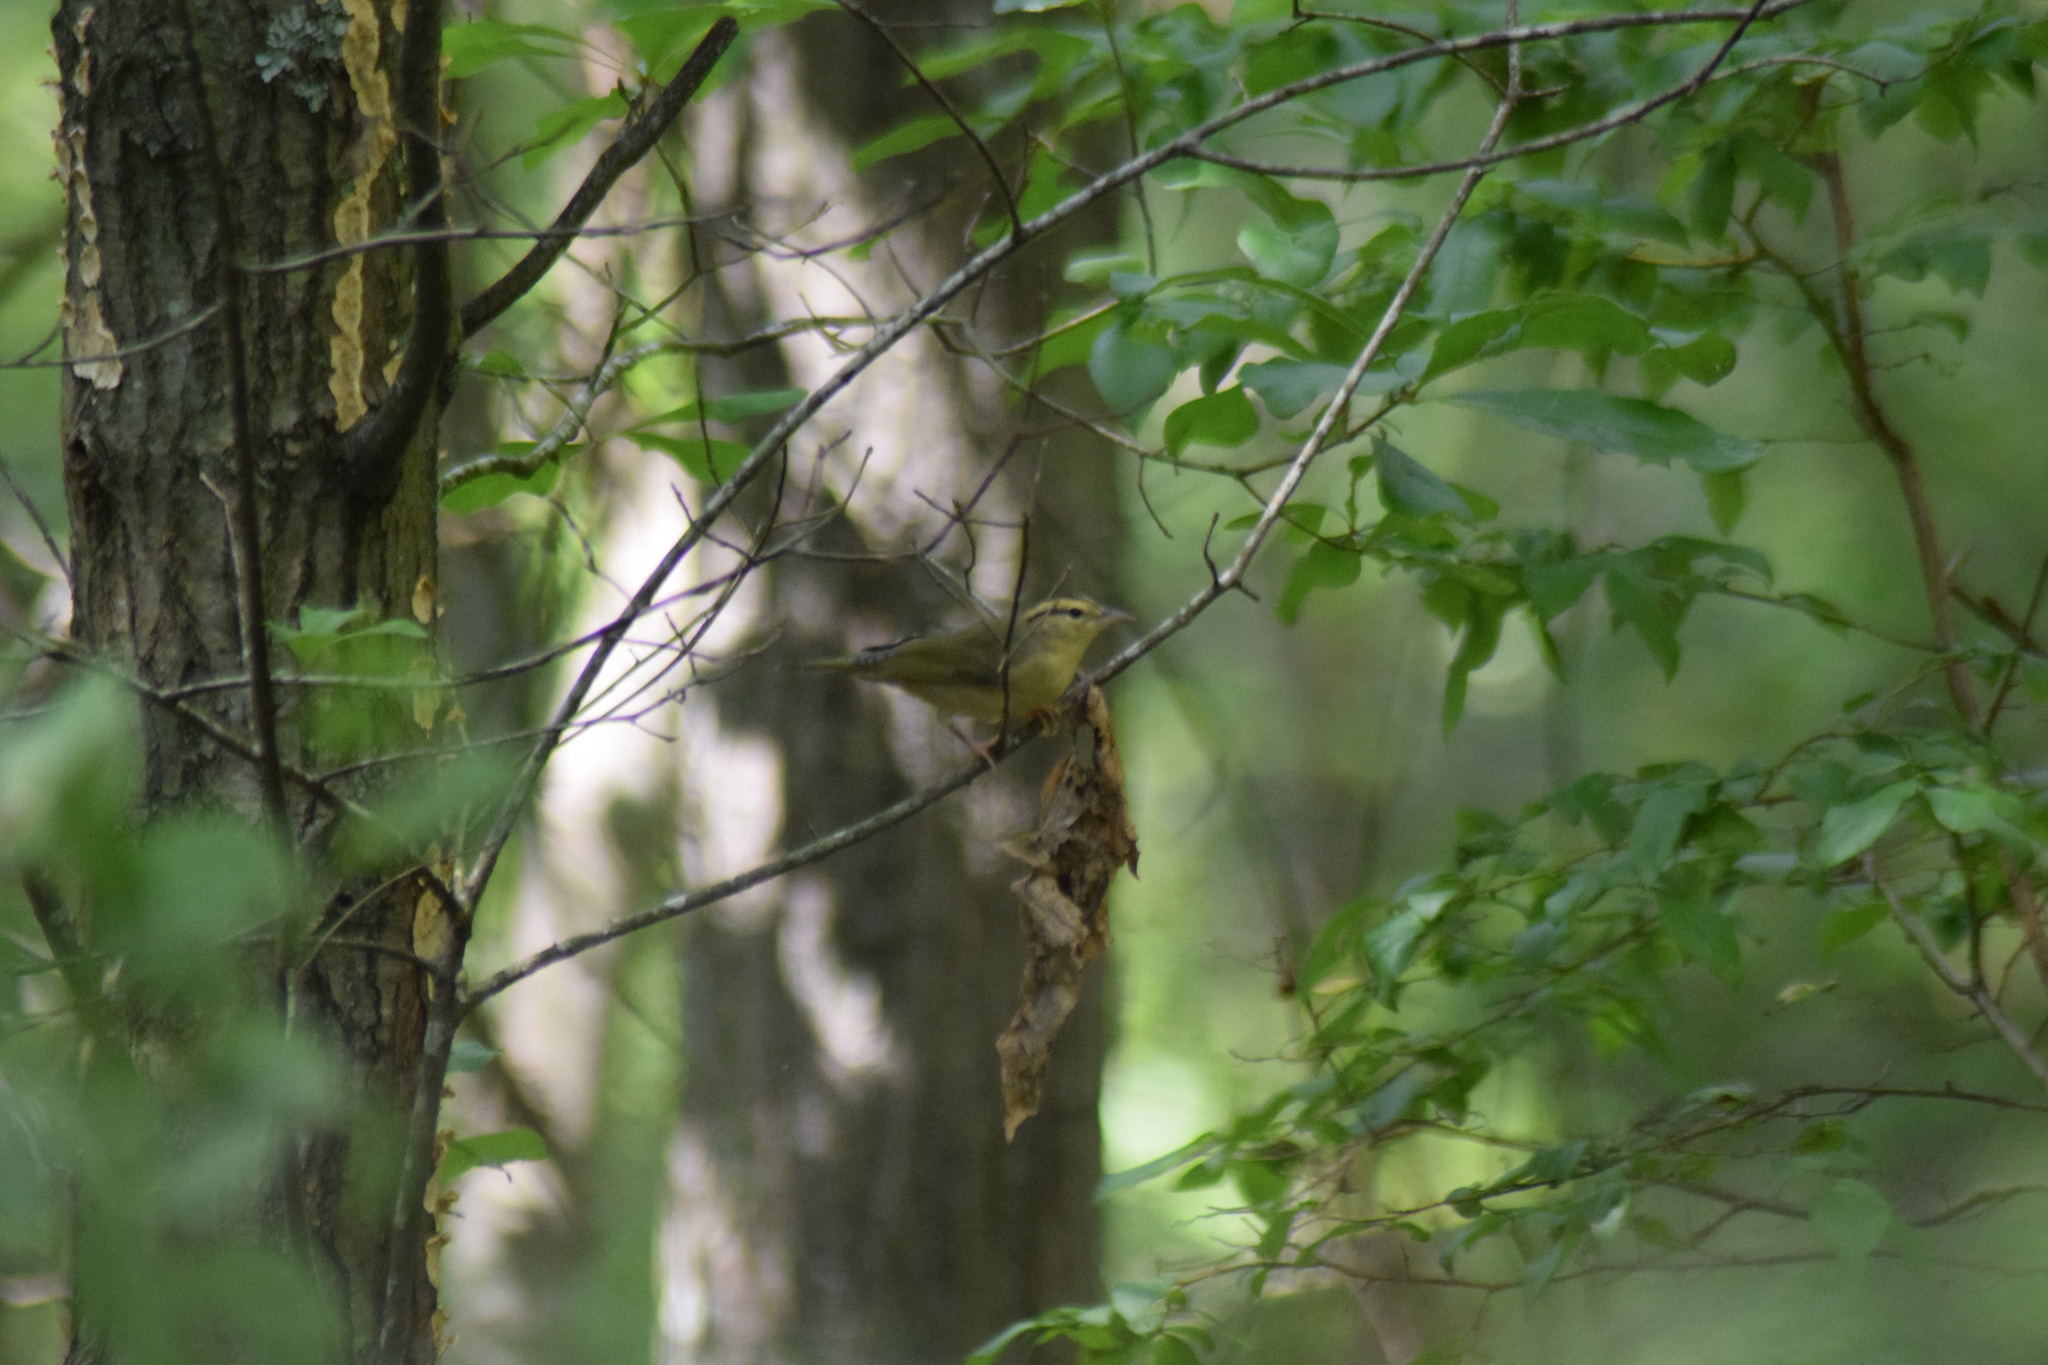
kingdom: Animalia
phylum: Chordata
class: Aves
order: Passeriformes
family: Parulidae
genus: Helmitheros
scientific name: Helmitheros vermivorum
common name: Worm-eating warbler
